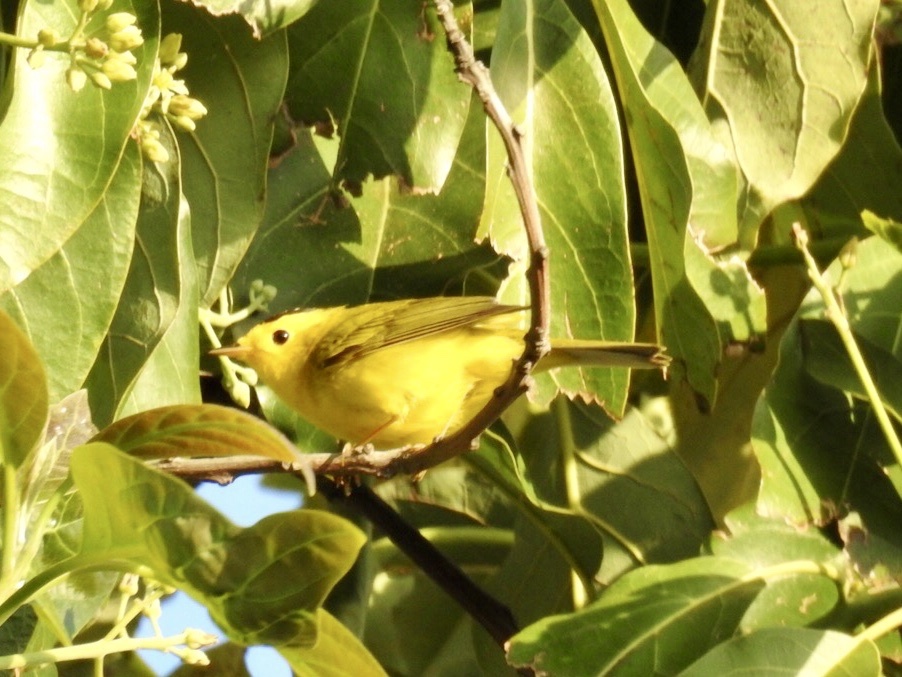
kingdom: Animalia
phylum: Chordata
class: Aves
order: Passeriformes
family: Parulidae
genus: Cardellina
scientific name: Cardellina pusilla
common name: Wilson's warbler
